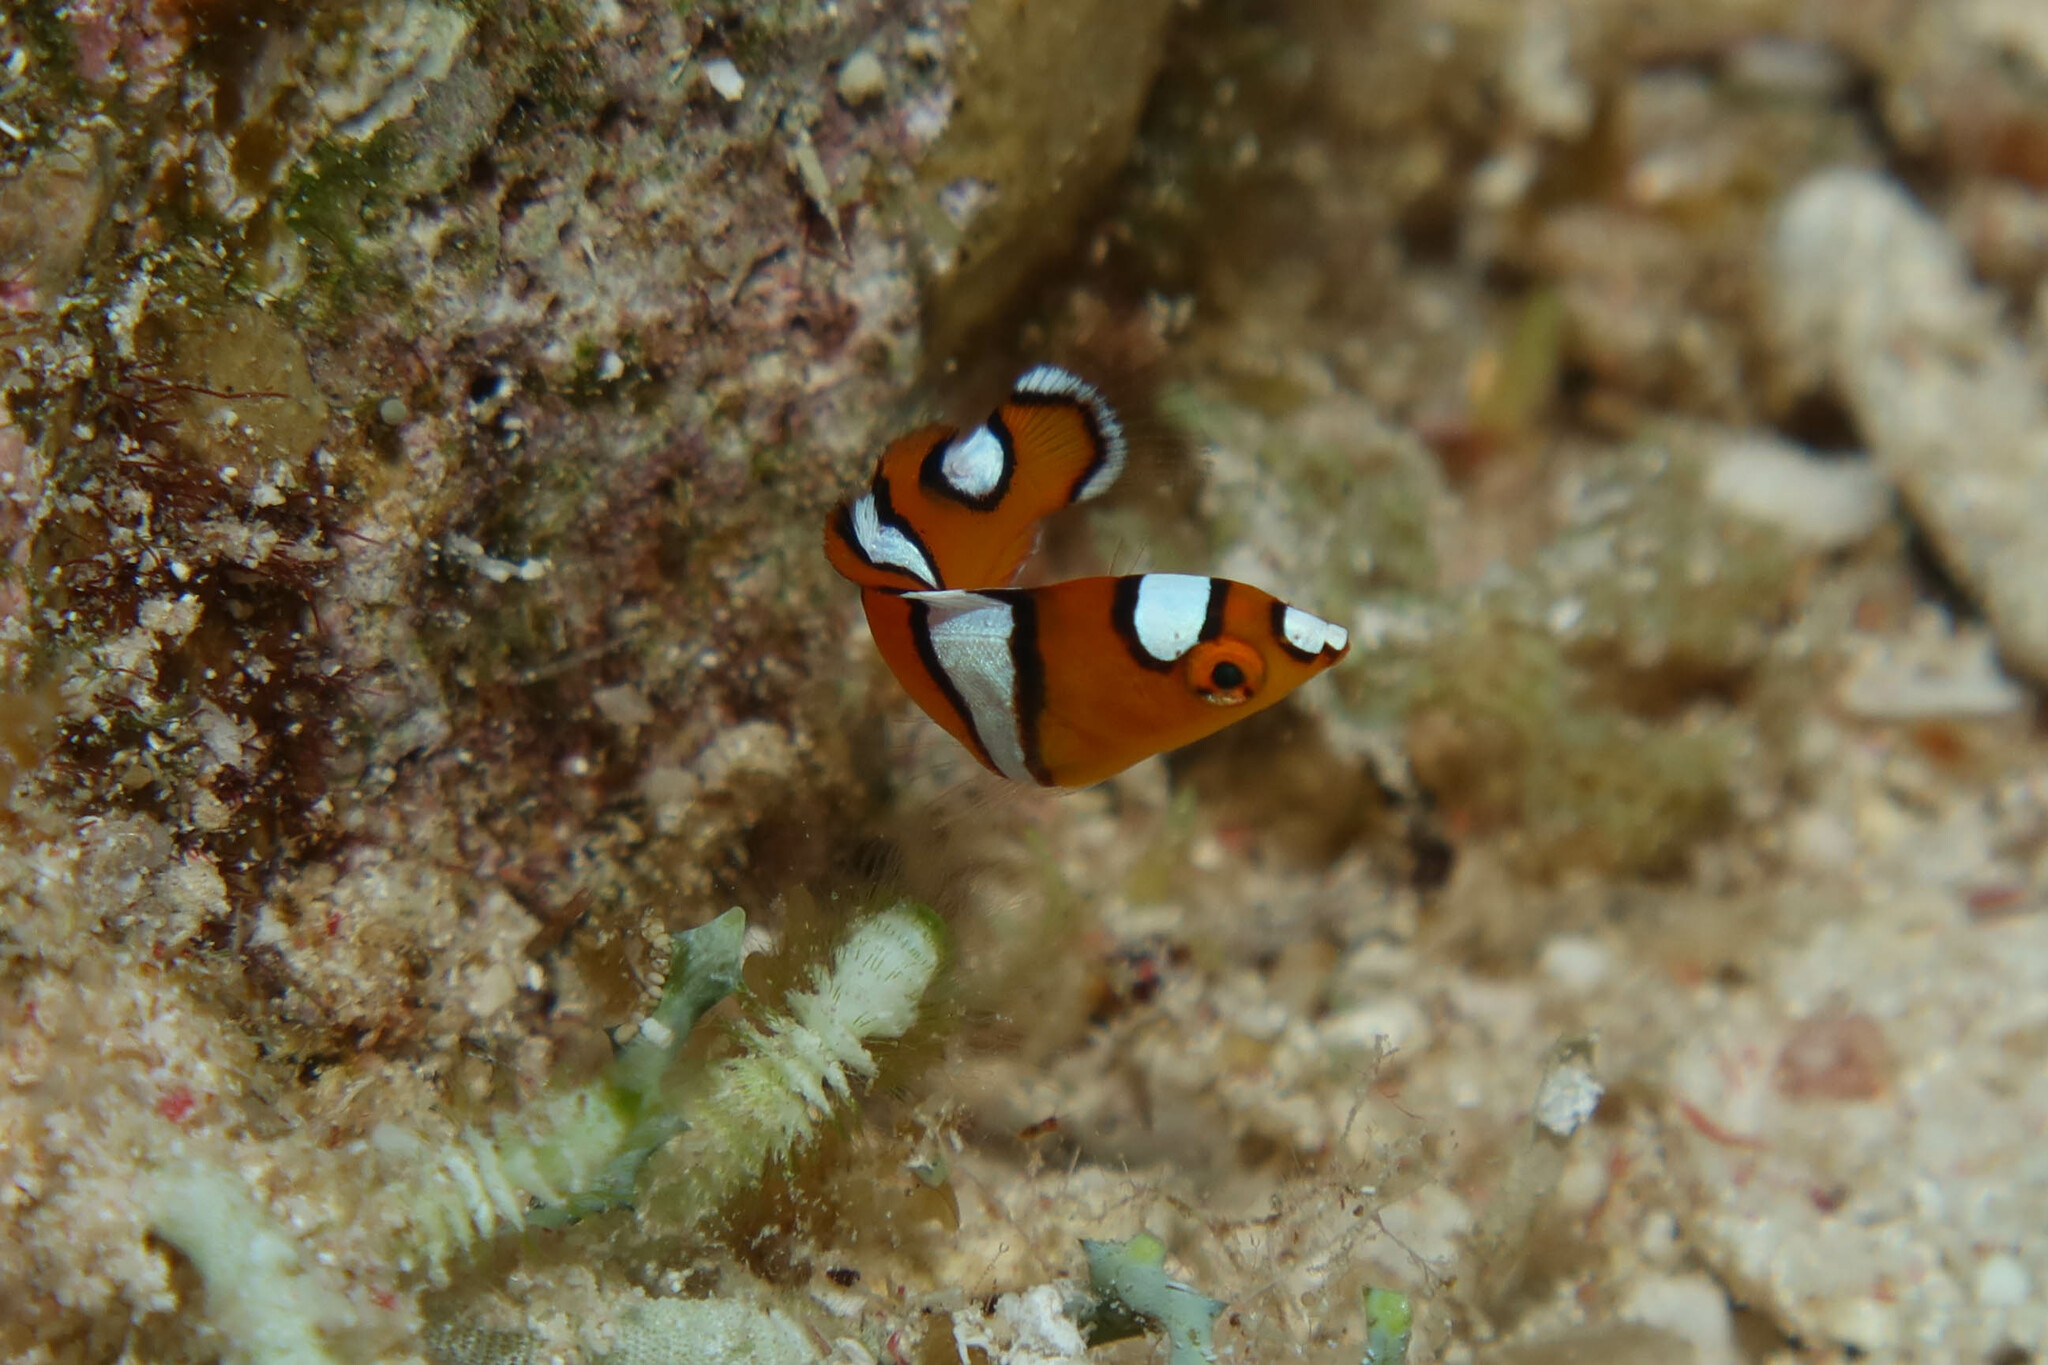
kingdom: Animalia
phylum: Chordata
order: Perciformes
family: Labridae
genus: Coris
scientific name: Coris cuvieri
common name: African coris
